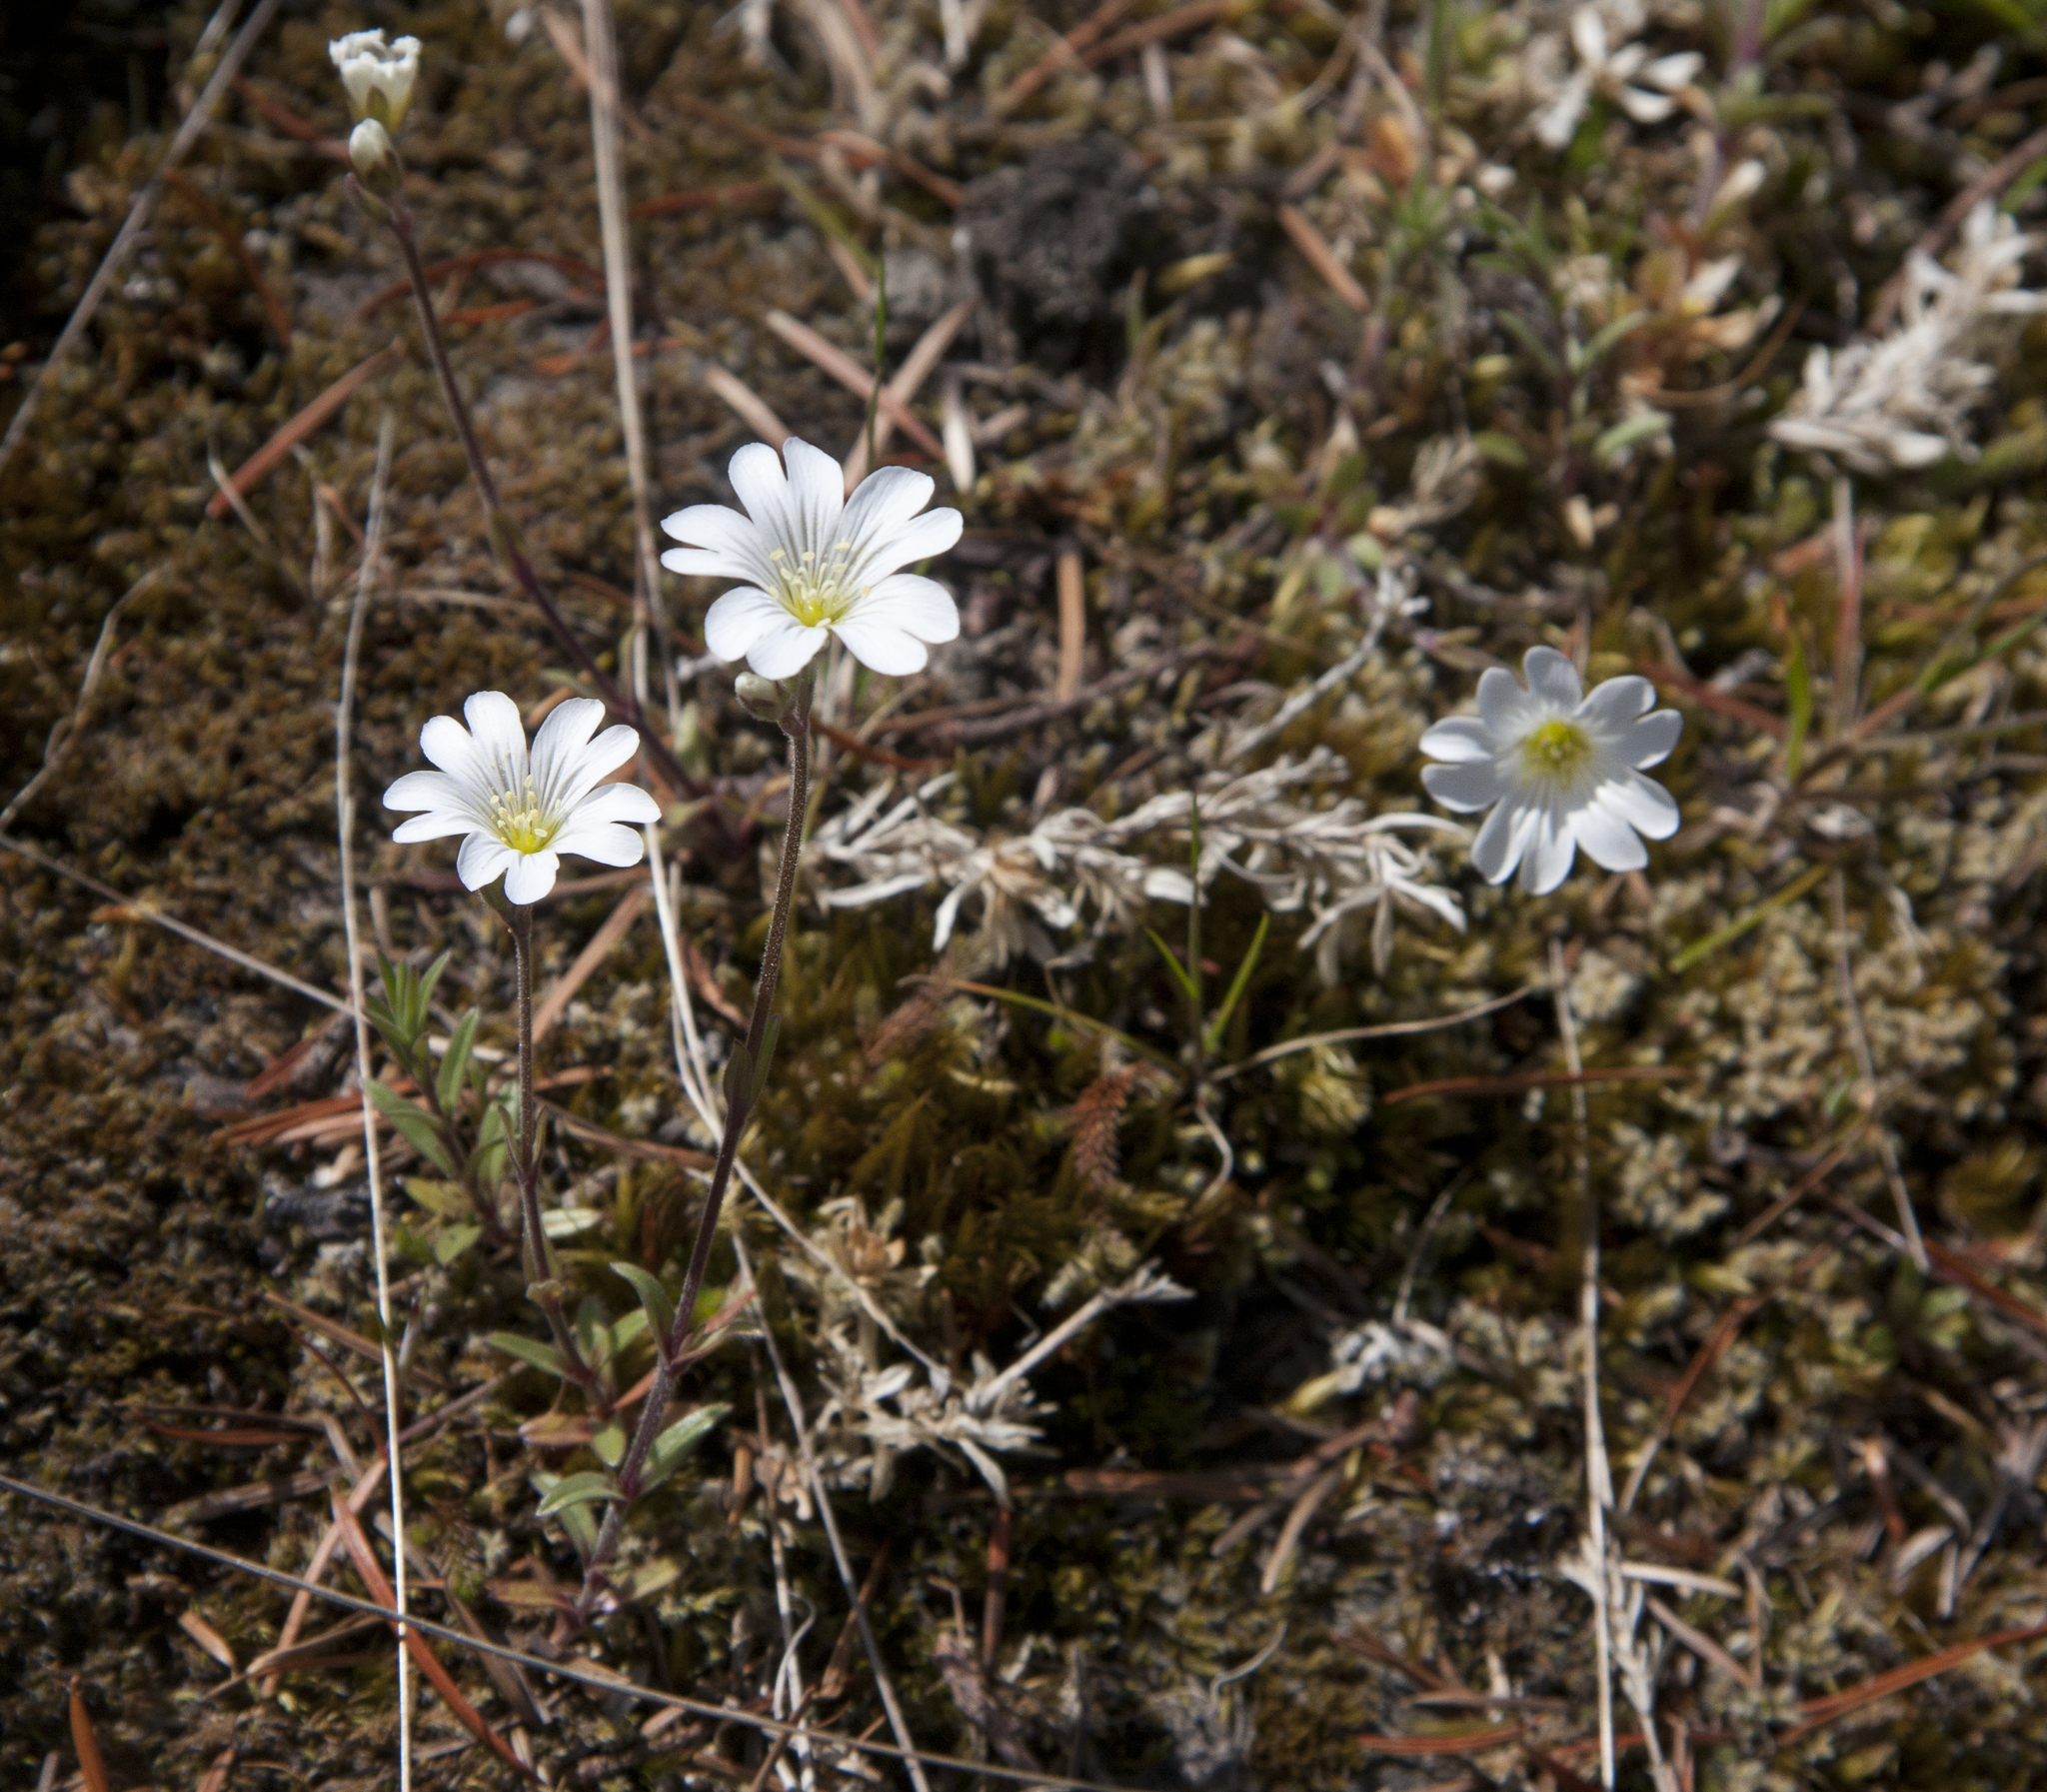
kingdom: Plantae
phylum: Tracheophyta
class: Magnoliopsida
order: Caryophyllales
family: Caryophyllaceae
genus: Cerastium
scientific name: Cerastium arvense
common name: Field mouse-ear
